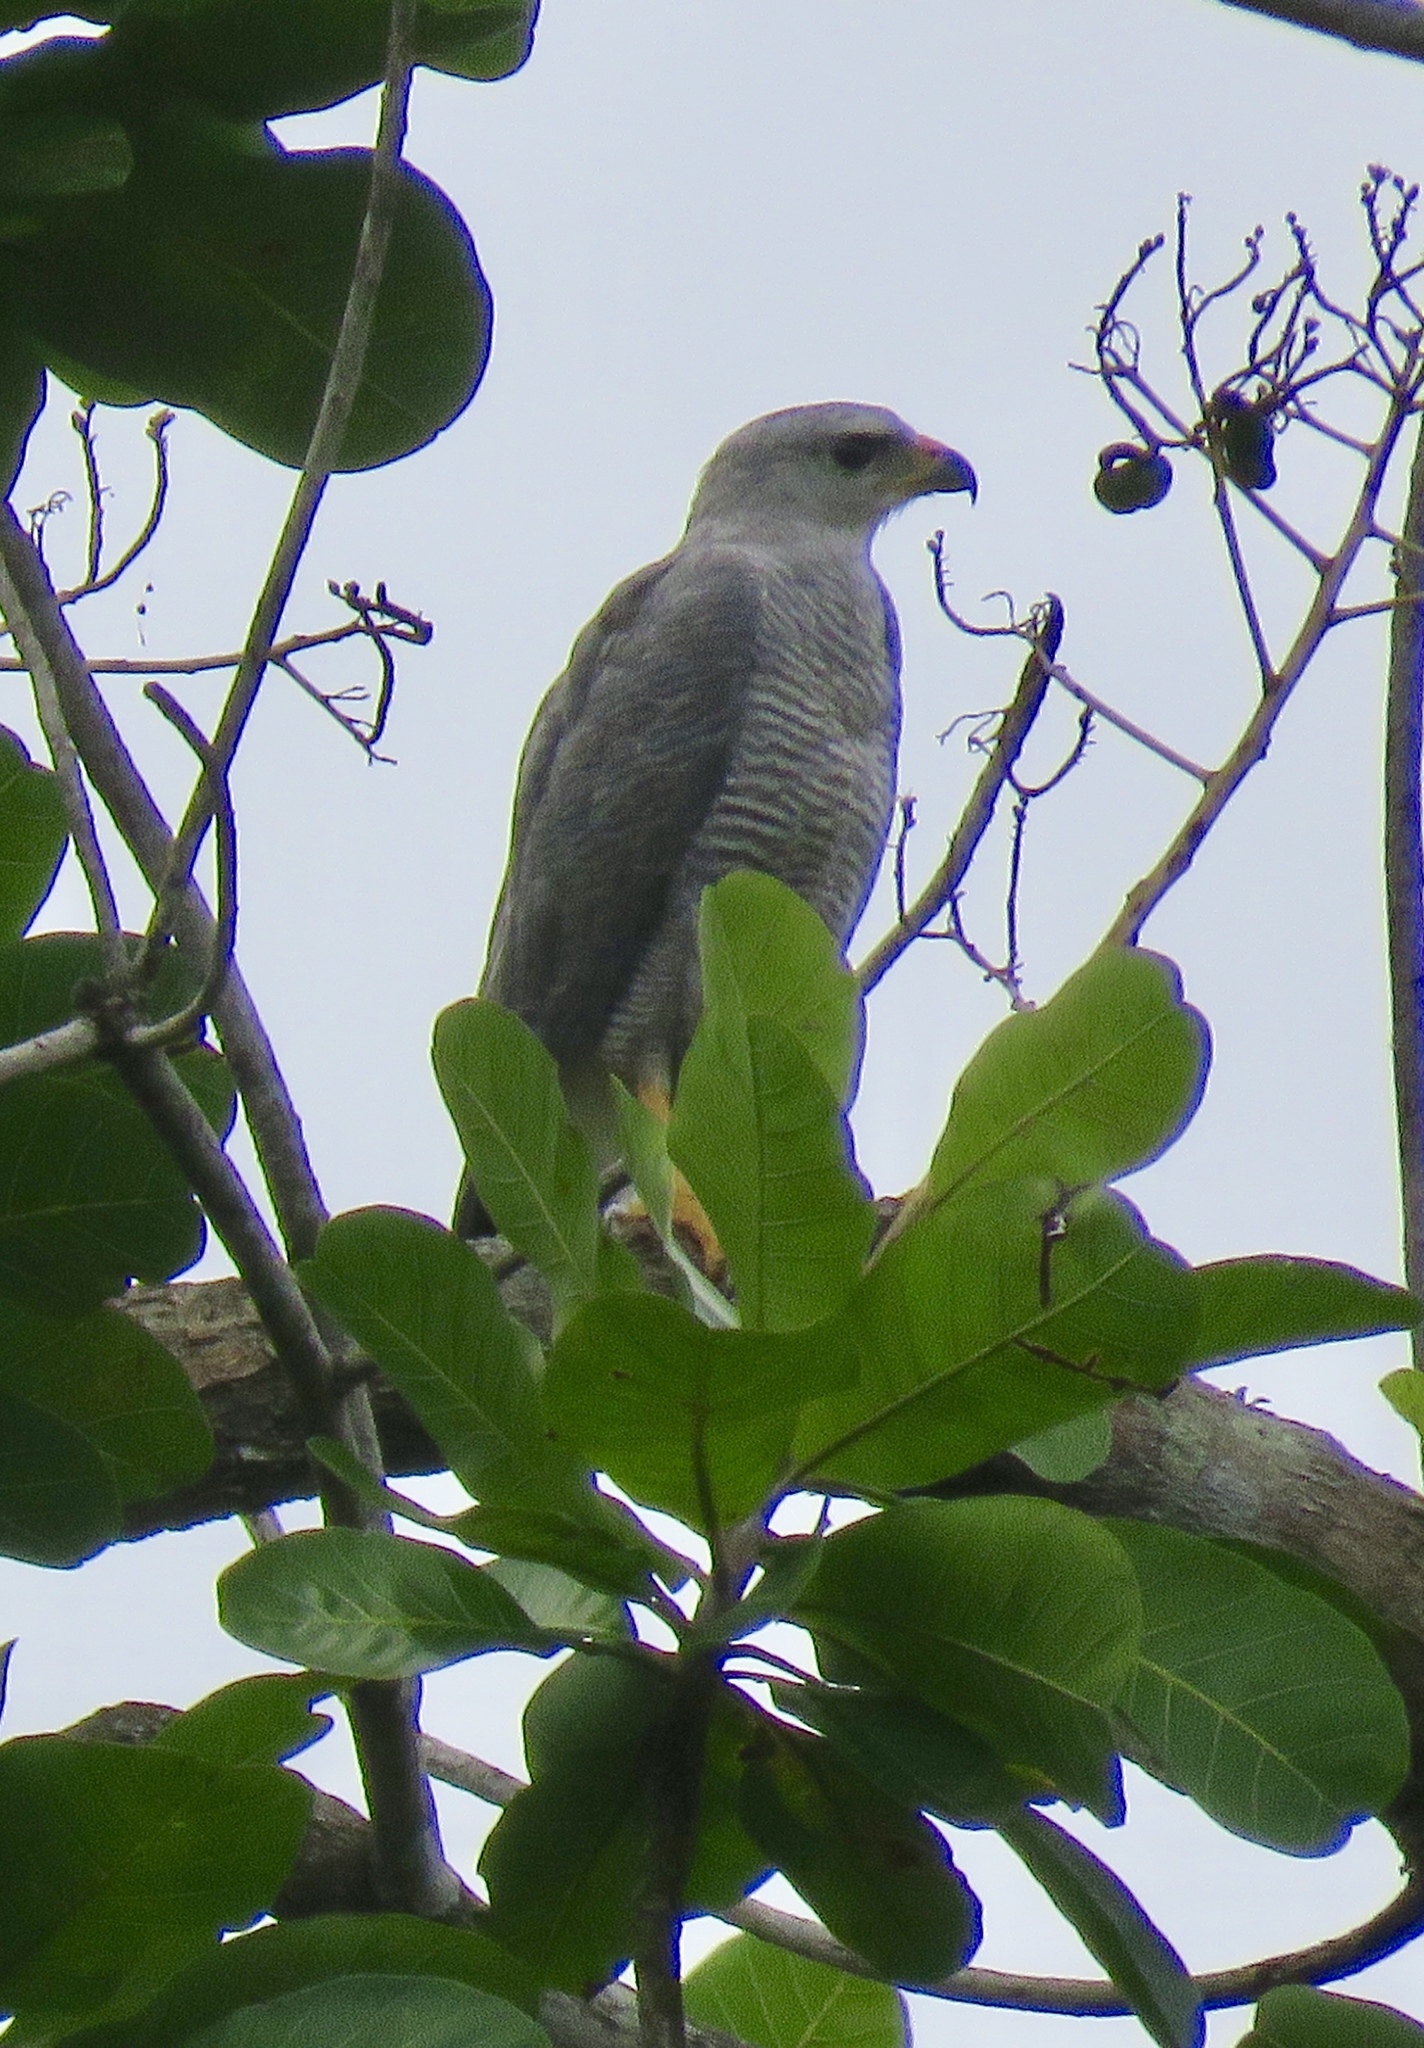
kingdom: Animalia
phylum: Chordata
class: Aves
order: Accipitriformes
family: Accipitridae
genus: Buteo
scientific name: Buteo nitidus
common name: Grey-lined hawk
